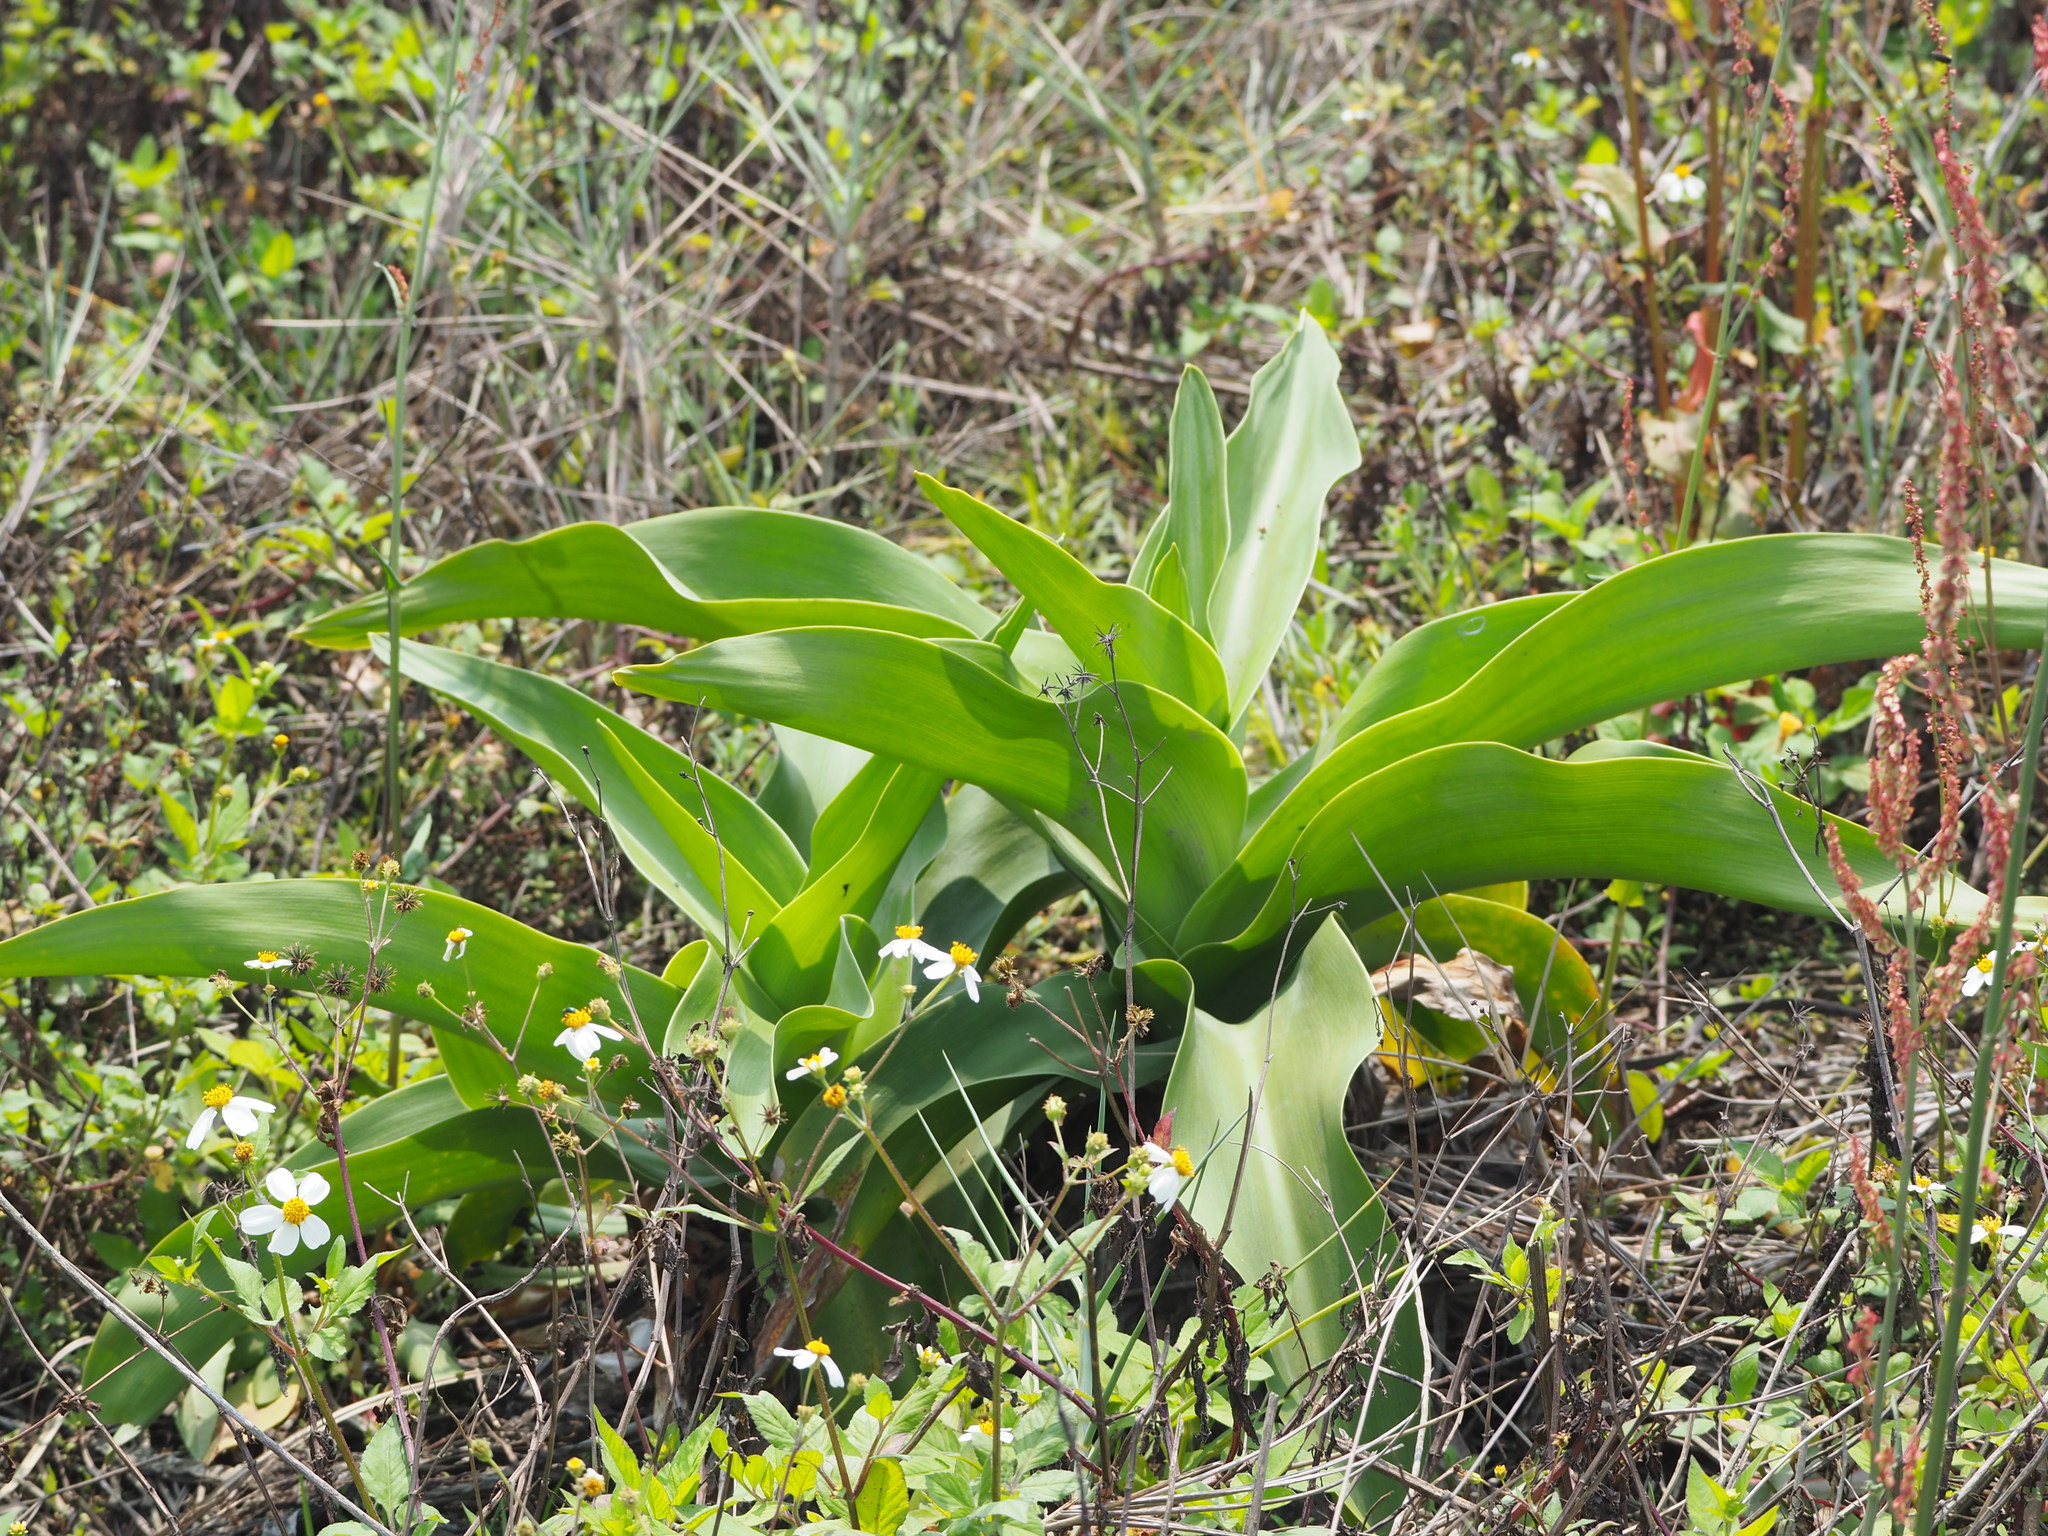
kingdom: Plantae
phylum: Tracheophyta
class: Liliopsida
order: Asparagales
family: Amaryllidaceae
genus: Crinum
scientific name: Crinum asiaticum
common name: Poisonbulb
